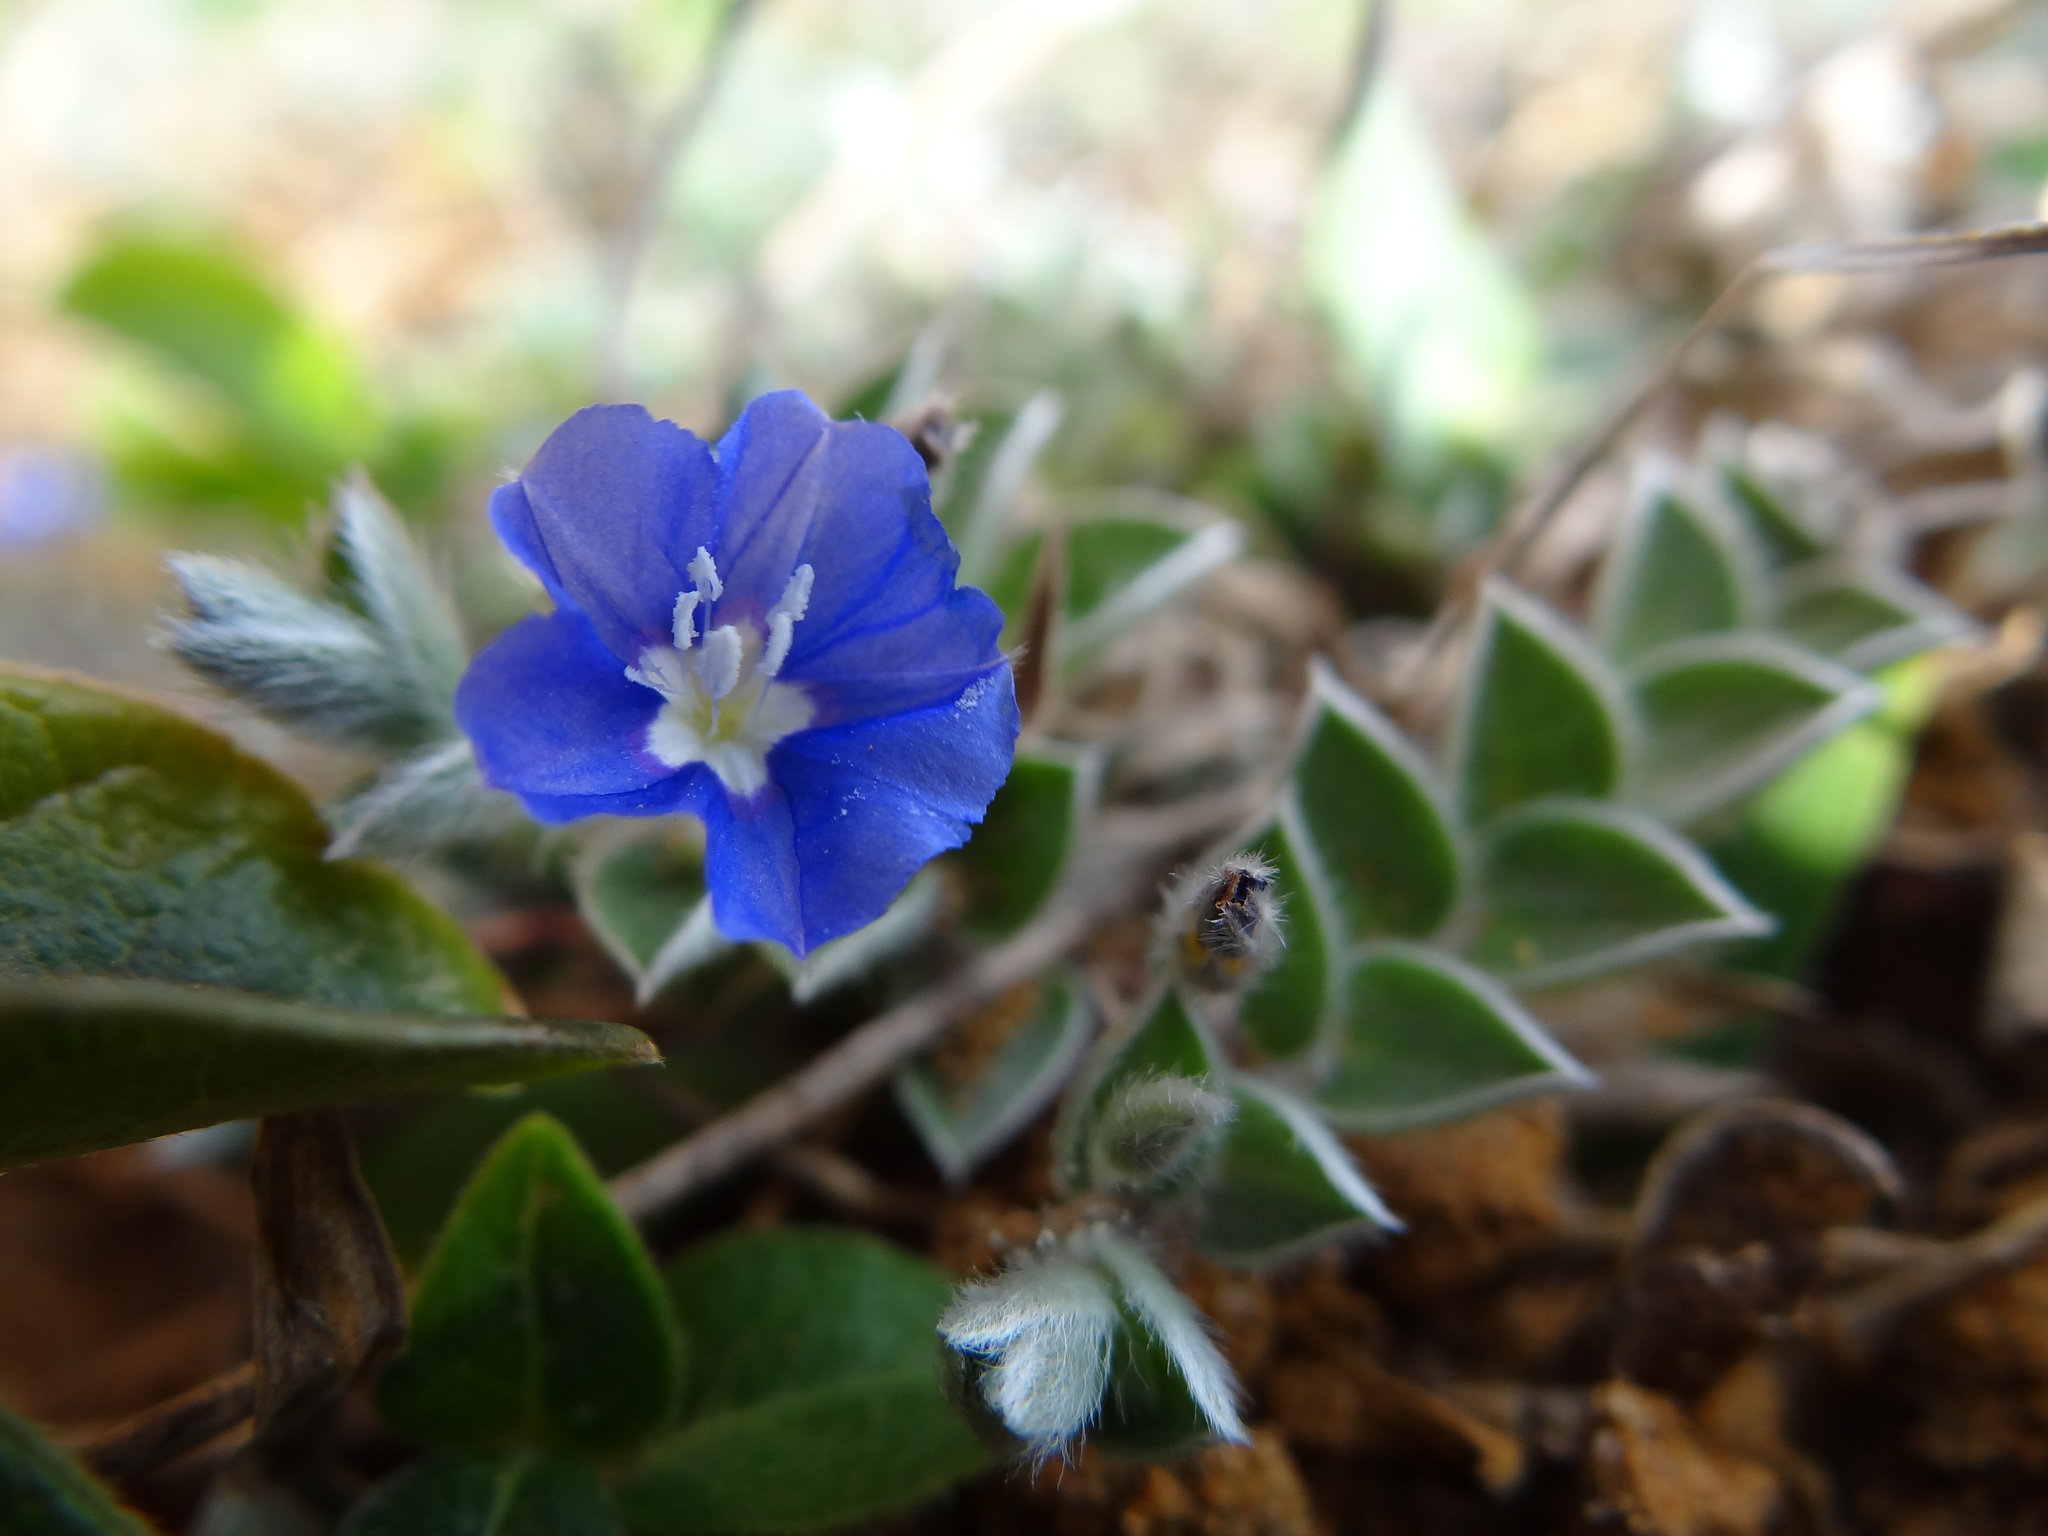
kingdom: Plantae
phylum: Tracheophyta
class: Magnoliopsida
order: Solanales
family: Convolvulaceae
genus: Evolvulus
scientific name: Evolvulus alsinoides
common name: Slender dwarf morning-glory
